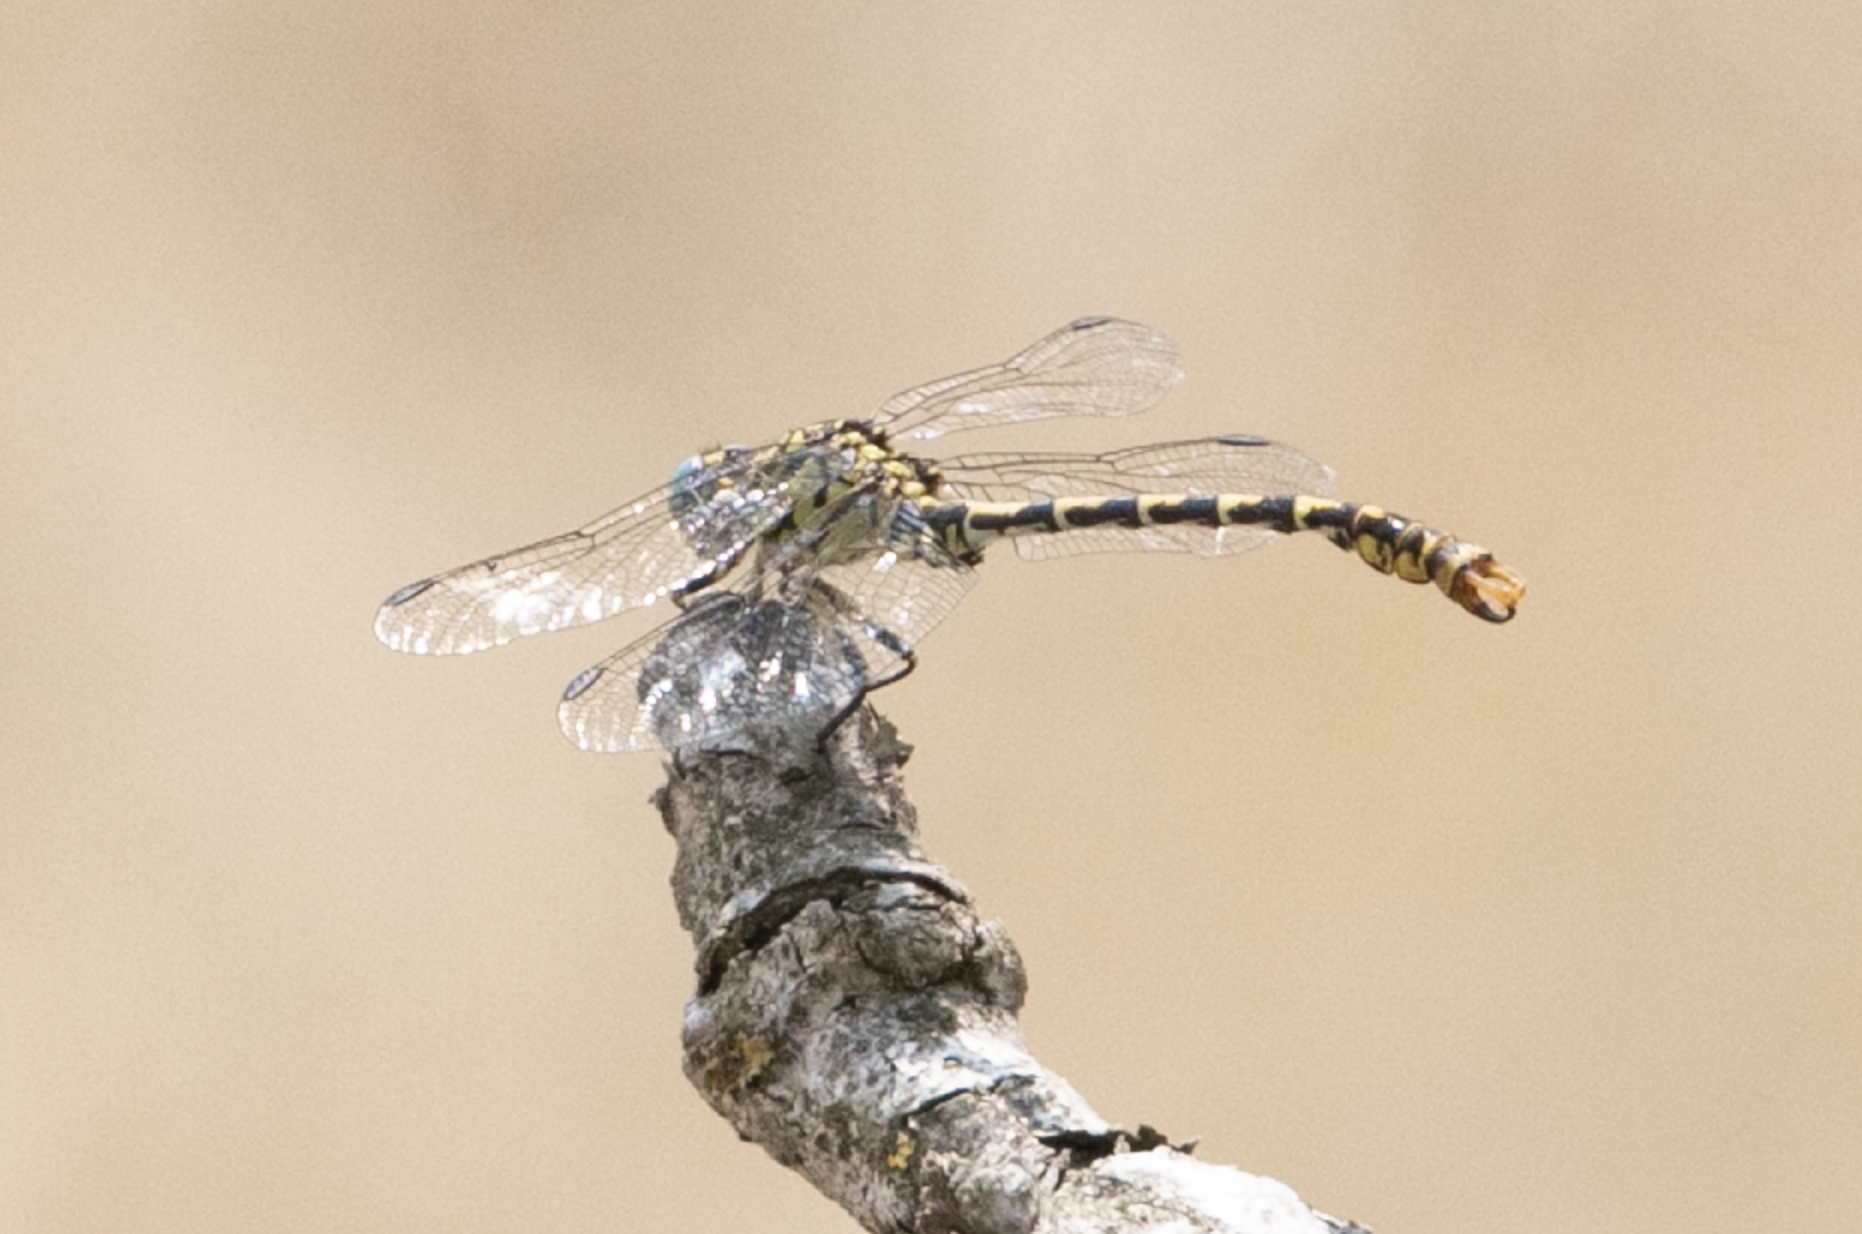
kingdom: Animalia
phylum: Arthropoda
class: Insecta
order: Odonata
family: Gomphidae
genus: Onychogomphus
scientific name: Onychogomphus forcipatus
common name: Small pincertail
